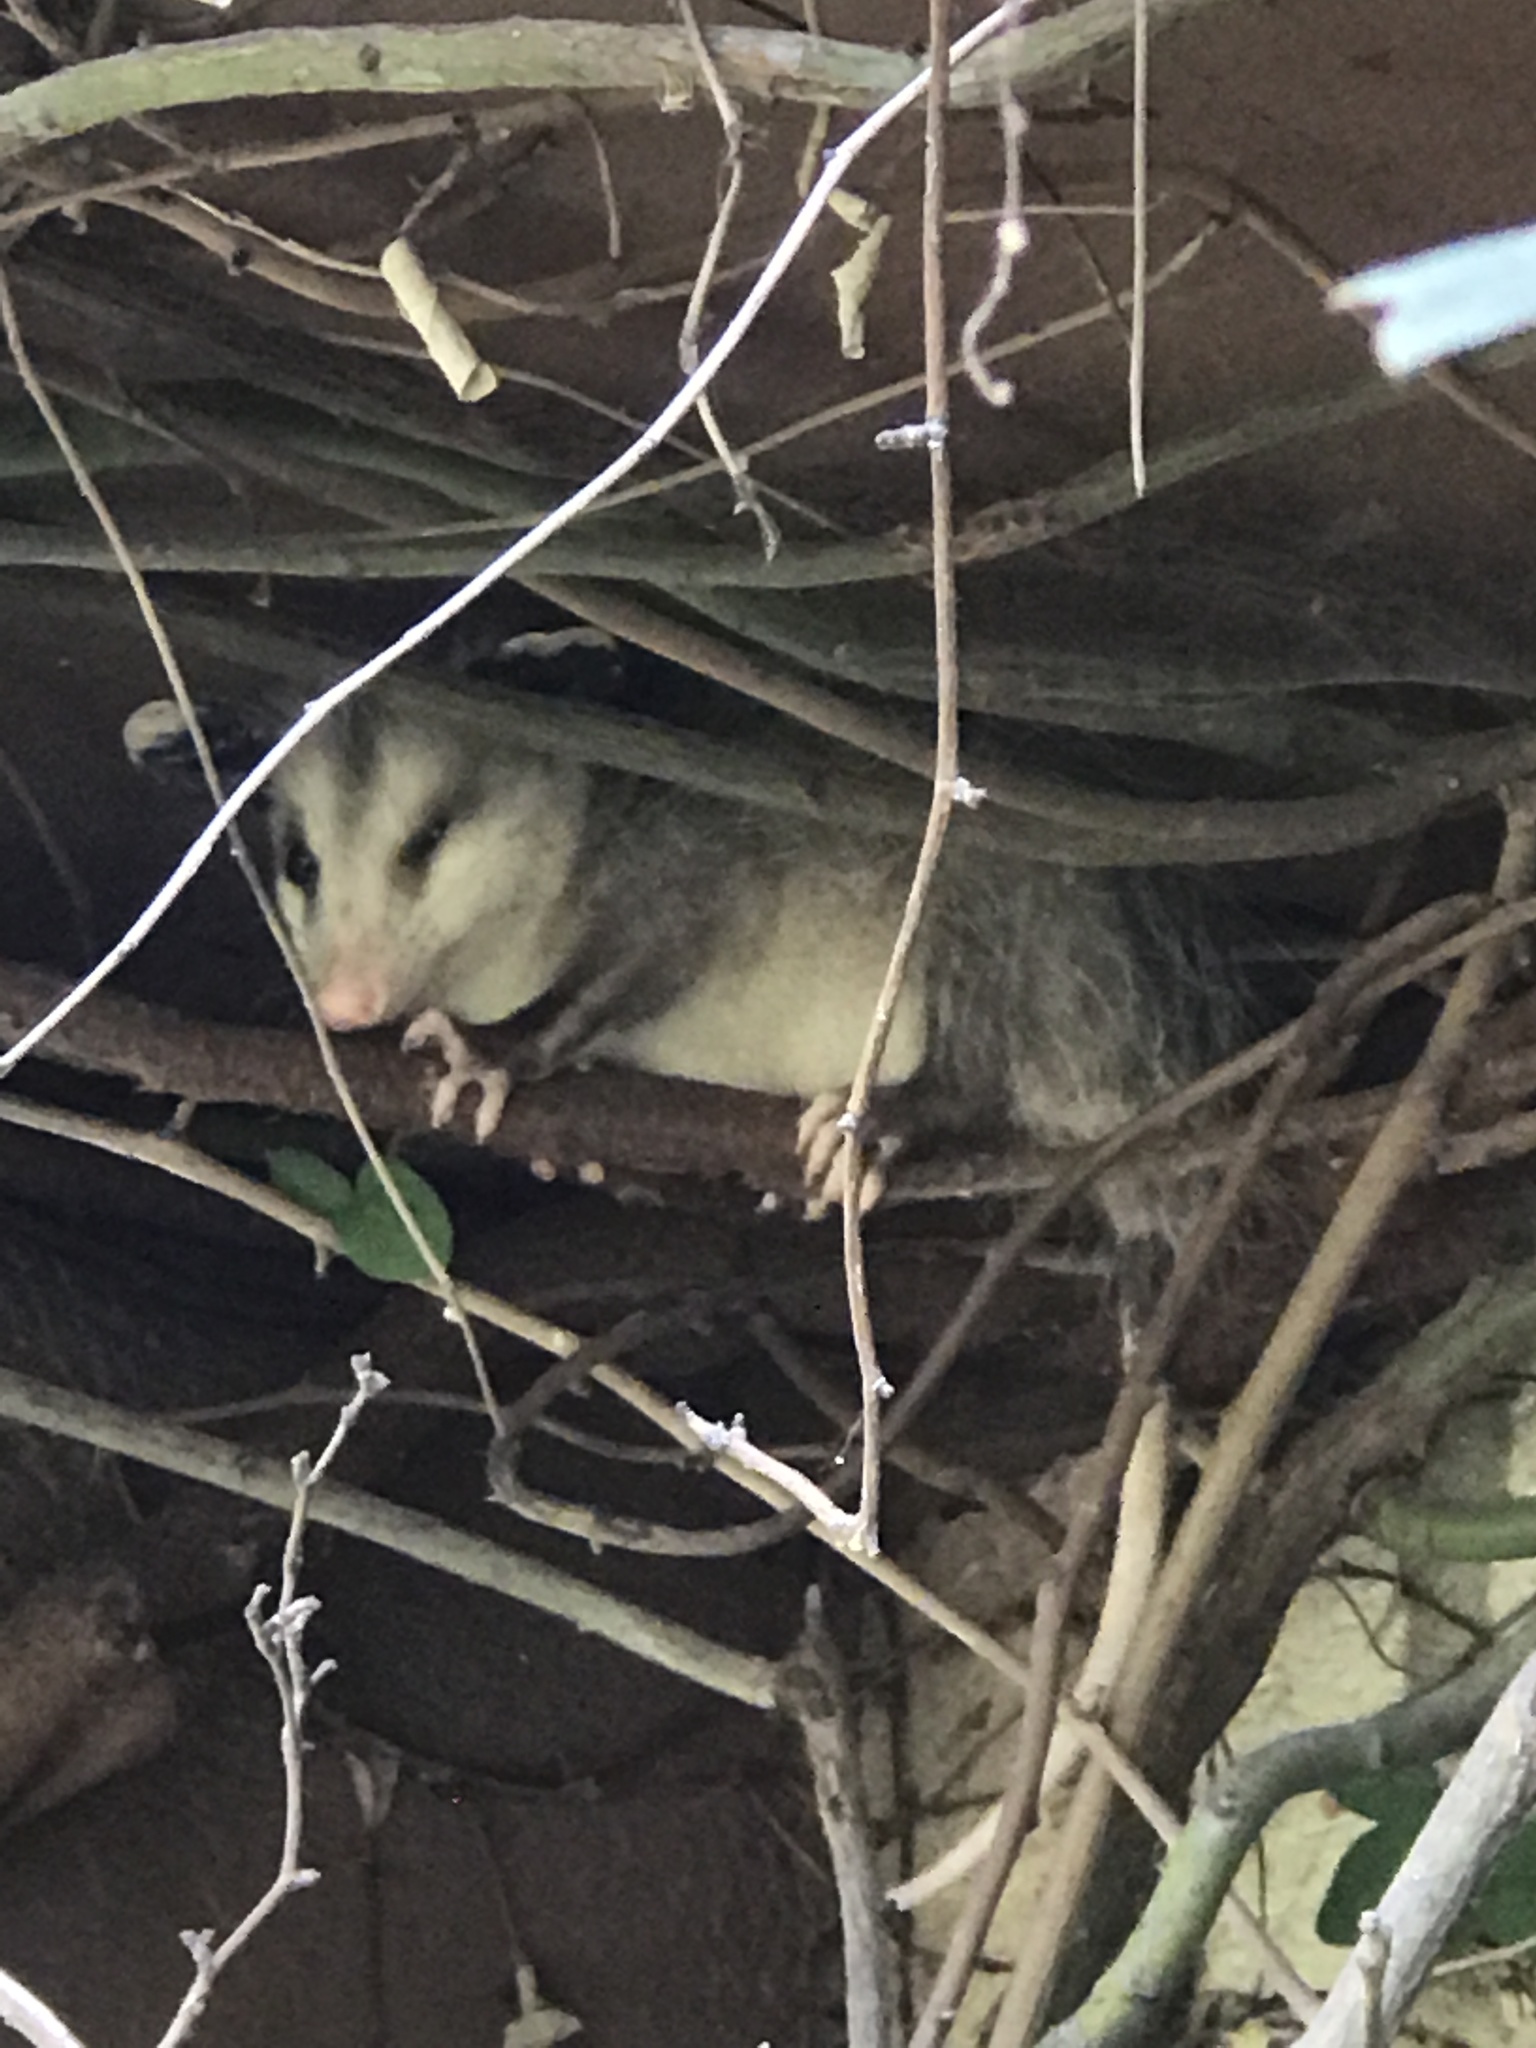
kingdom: Animalia
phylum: Chordata
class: Mammalia
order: Didelphimorphia
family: Didelphidae
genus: Didelphis
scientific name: Didelphis virginiana
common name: Virginia opossum
